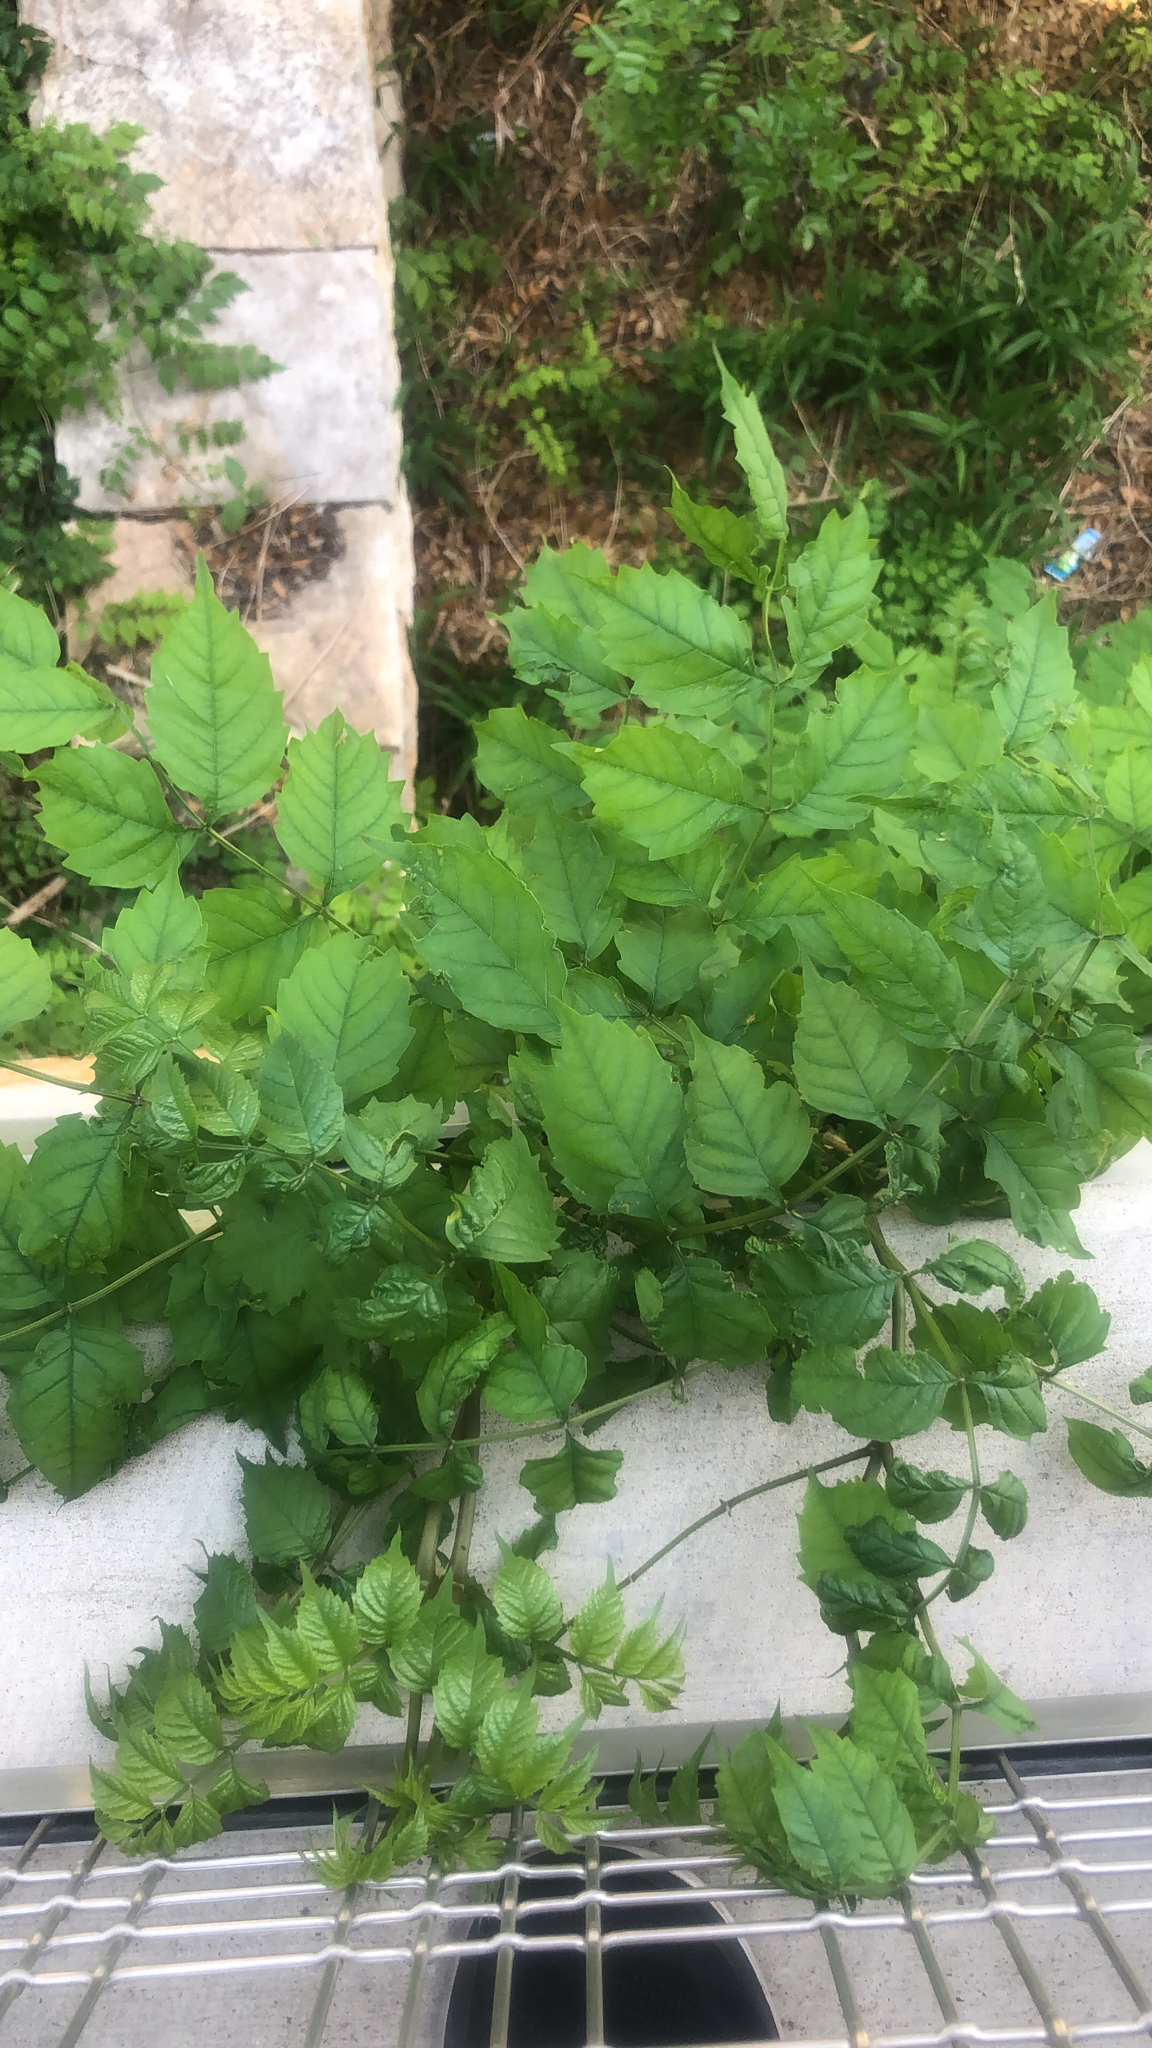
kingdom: Plantae
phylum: Tracheophyta
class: Magnoliopsida
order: Lamiales
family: Bignoniaceae
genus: Campsis
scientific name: Campsis radicans
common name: Trumpet-creeper
